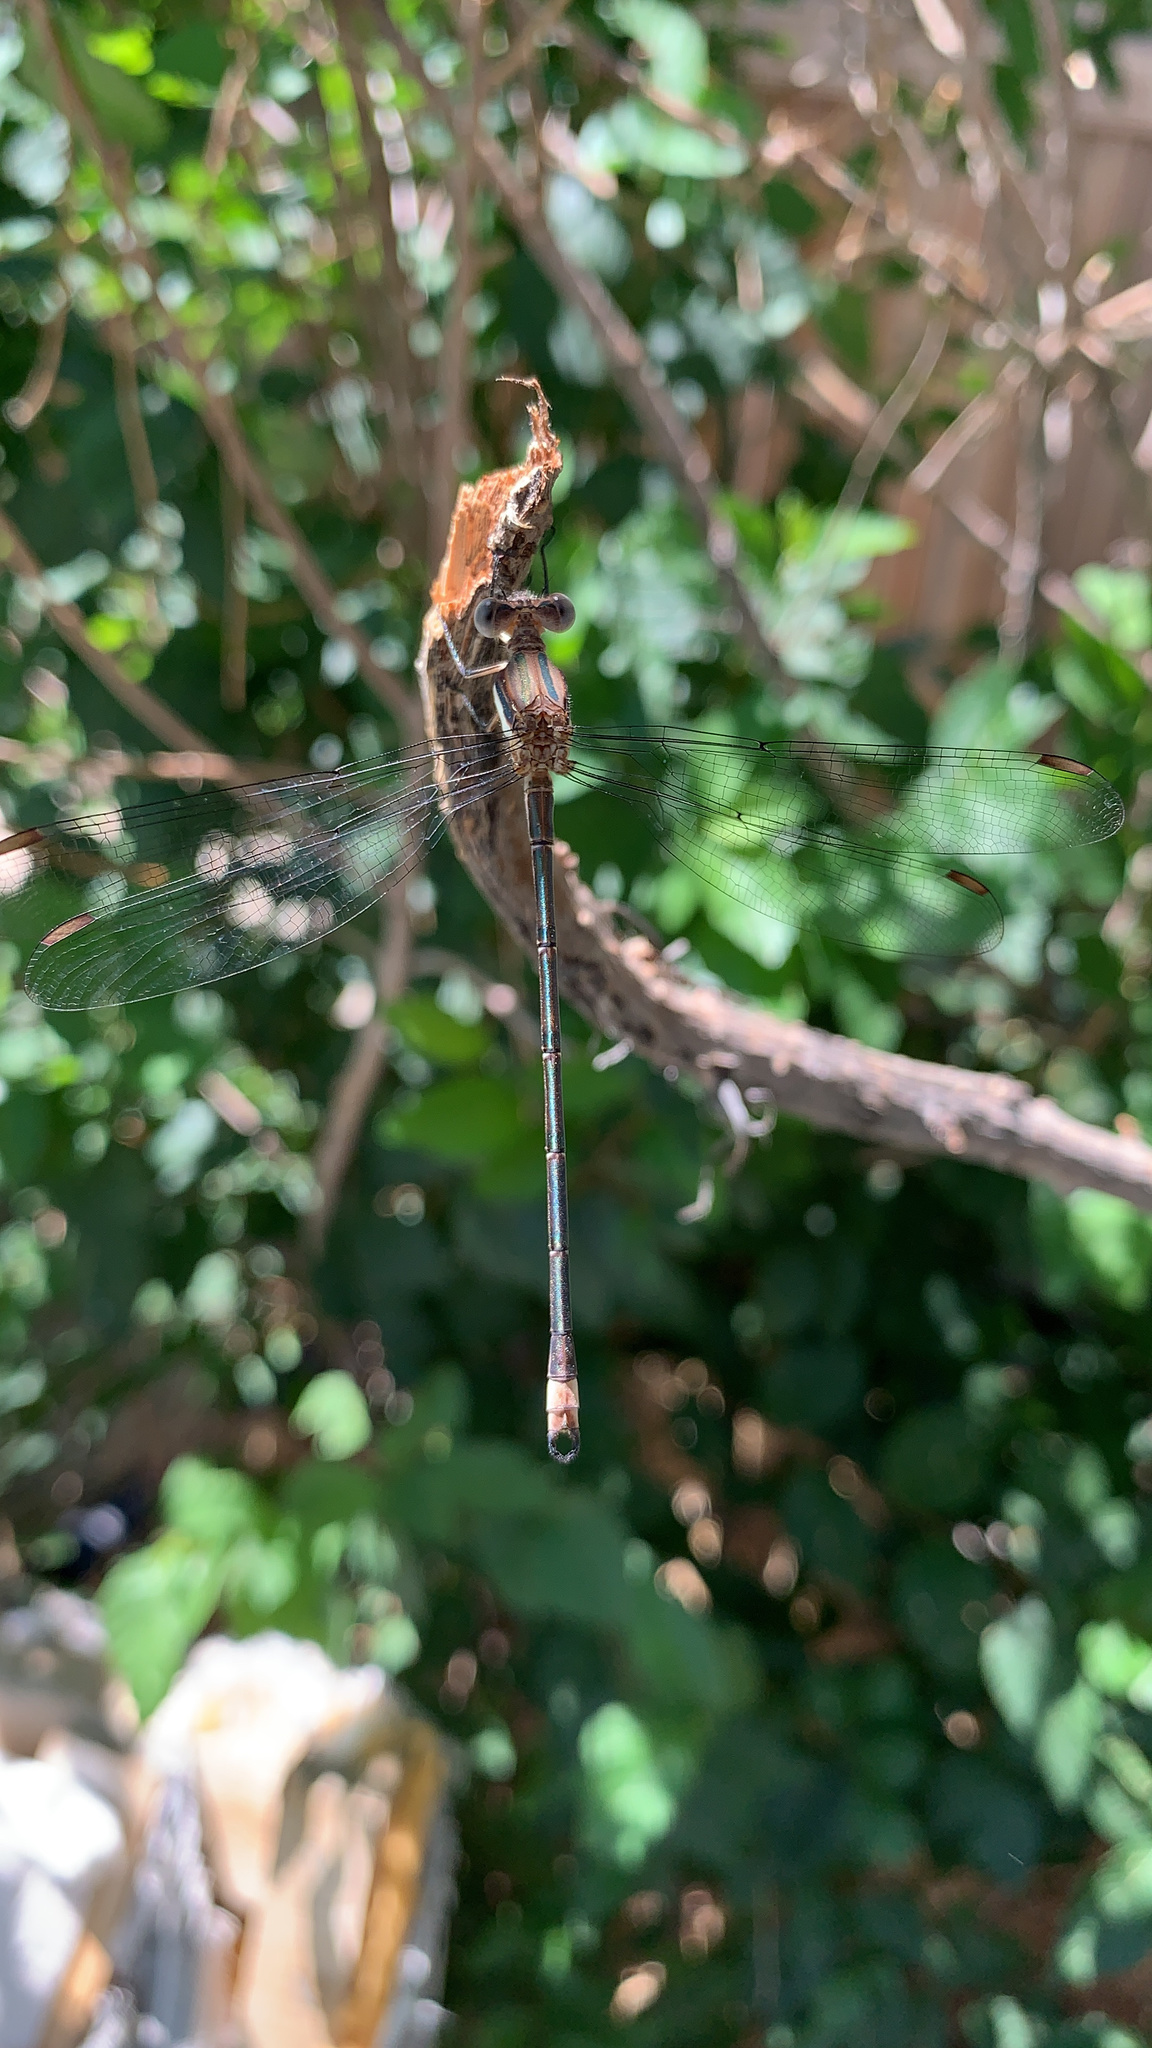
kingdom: Animalia
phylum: Arthropoda
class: Insecta
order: Odonata
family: Lestidae
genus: Archilestes
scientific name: Archilestes grandis
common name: Great spreadwing
